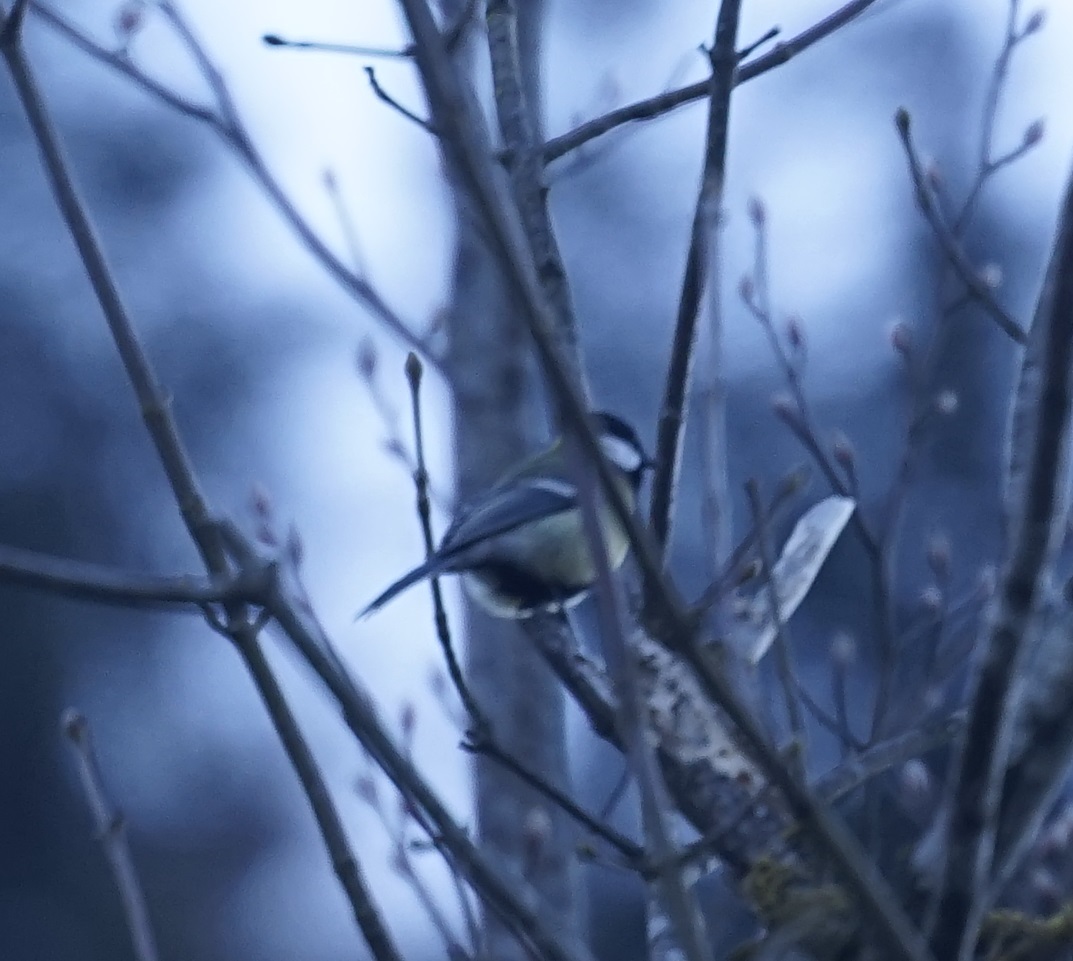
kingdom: Animalia
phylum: Chordata
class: Aves
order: Passeriformes
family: Paridae
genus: Parus
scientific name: Parus major
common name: Great tit
